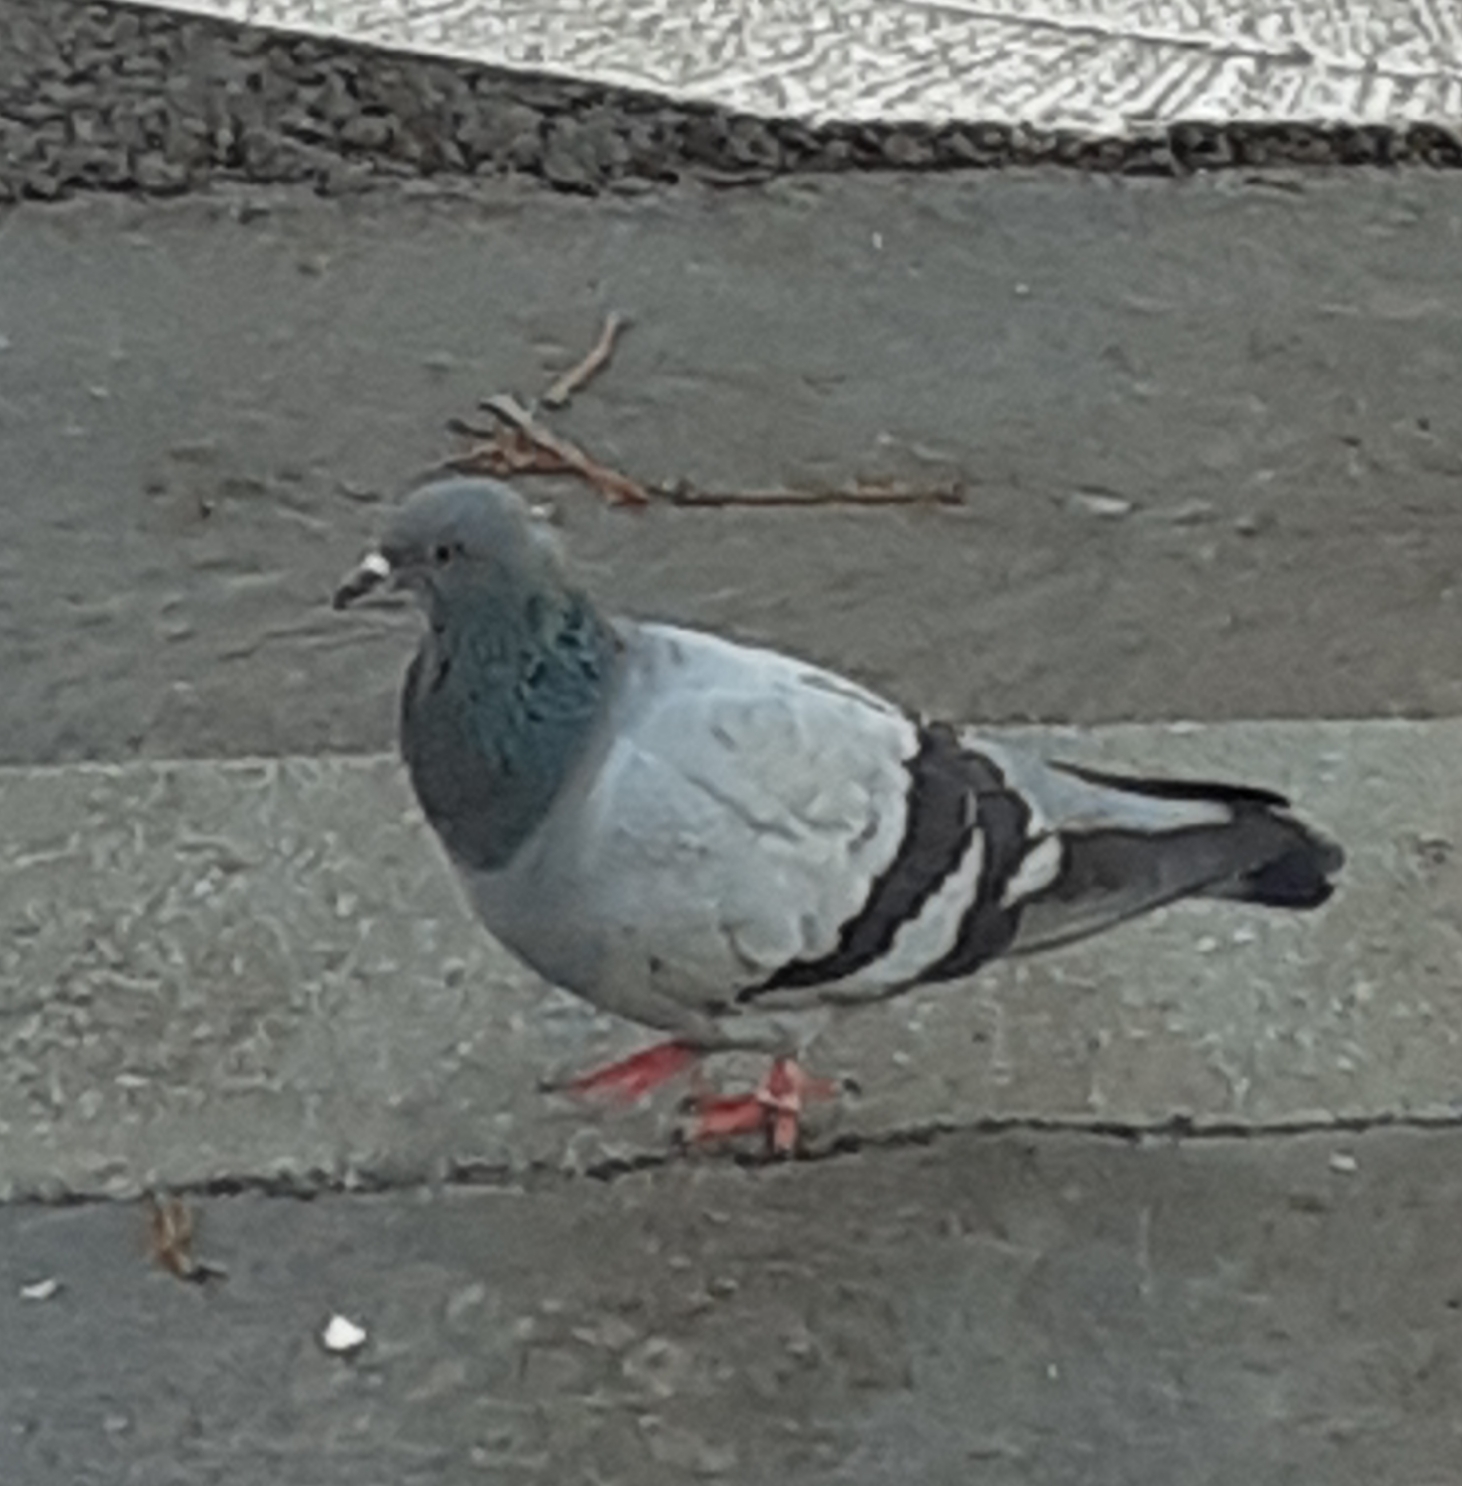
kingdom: Animalia
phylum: Chordata
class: Aves
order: Columbiformes
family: Columbidae
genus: Columba
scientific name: Columba livia
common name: Rock pigeon
